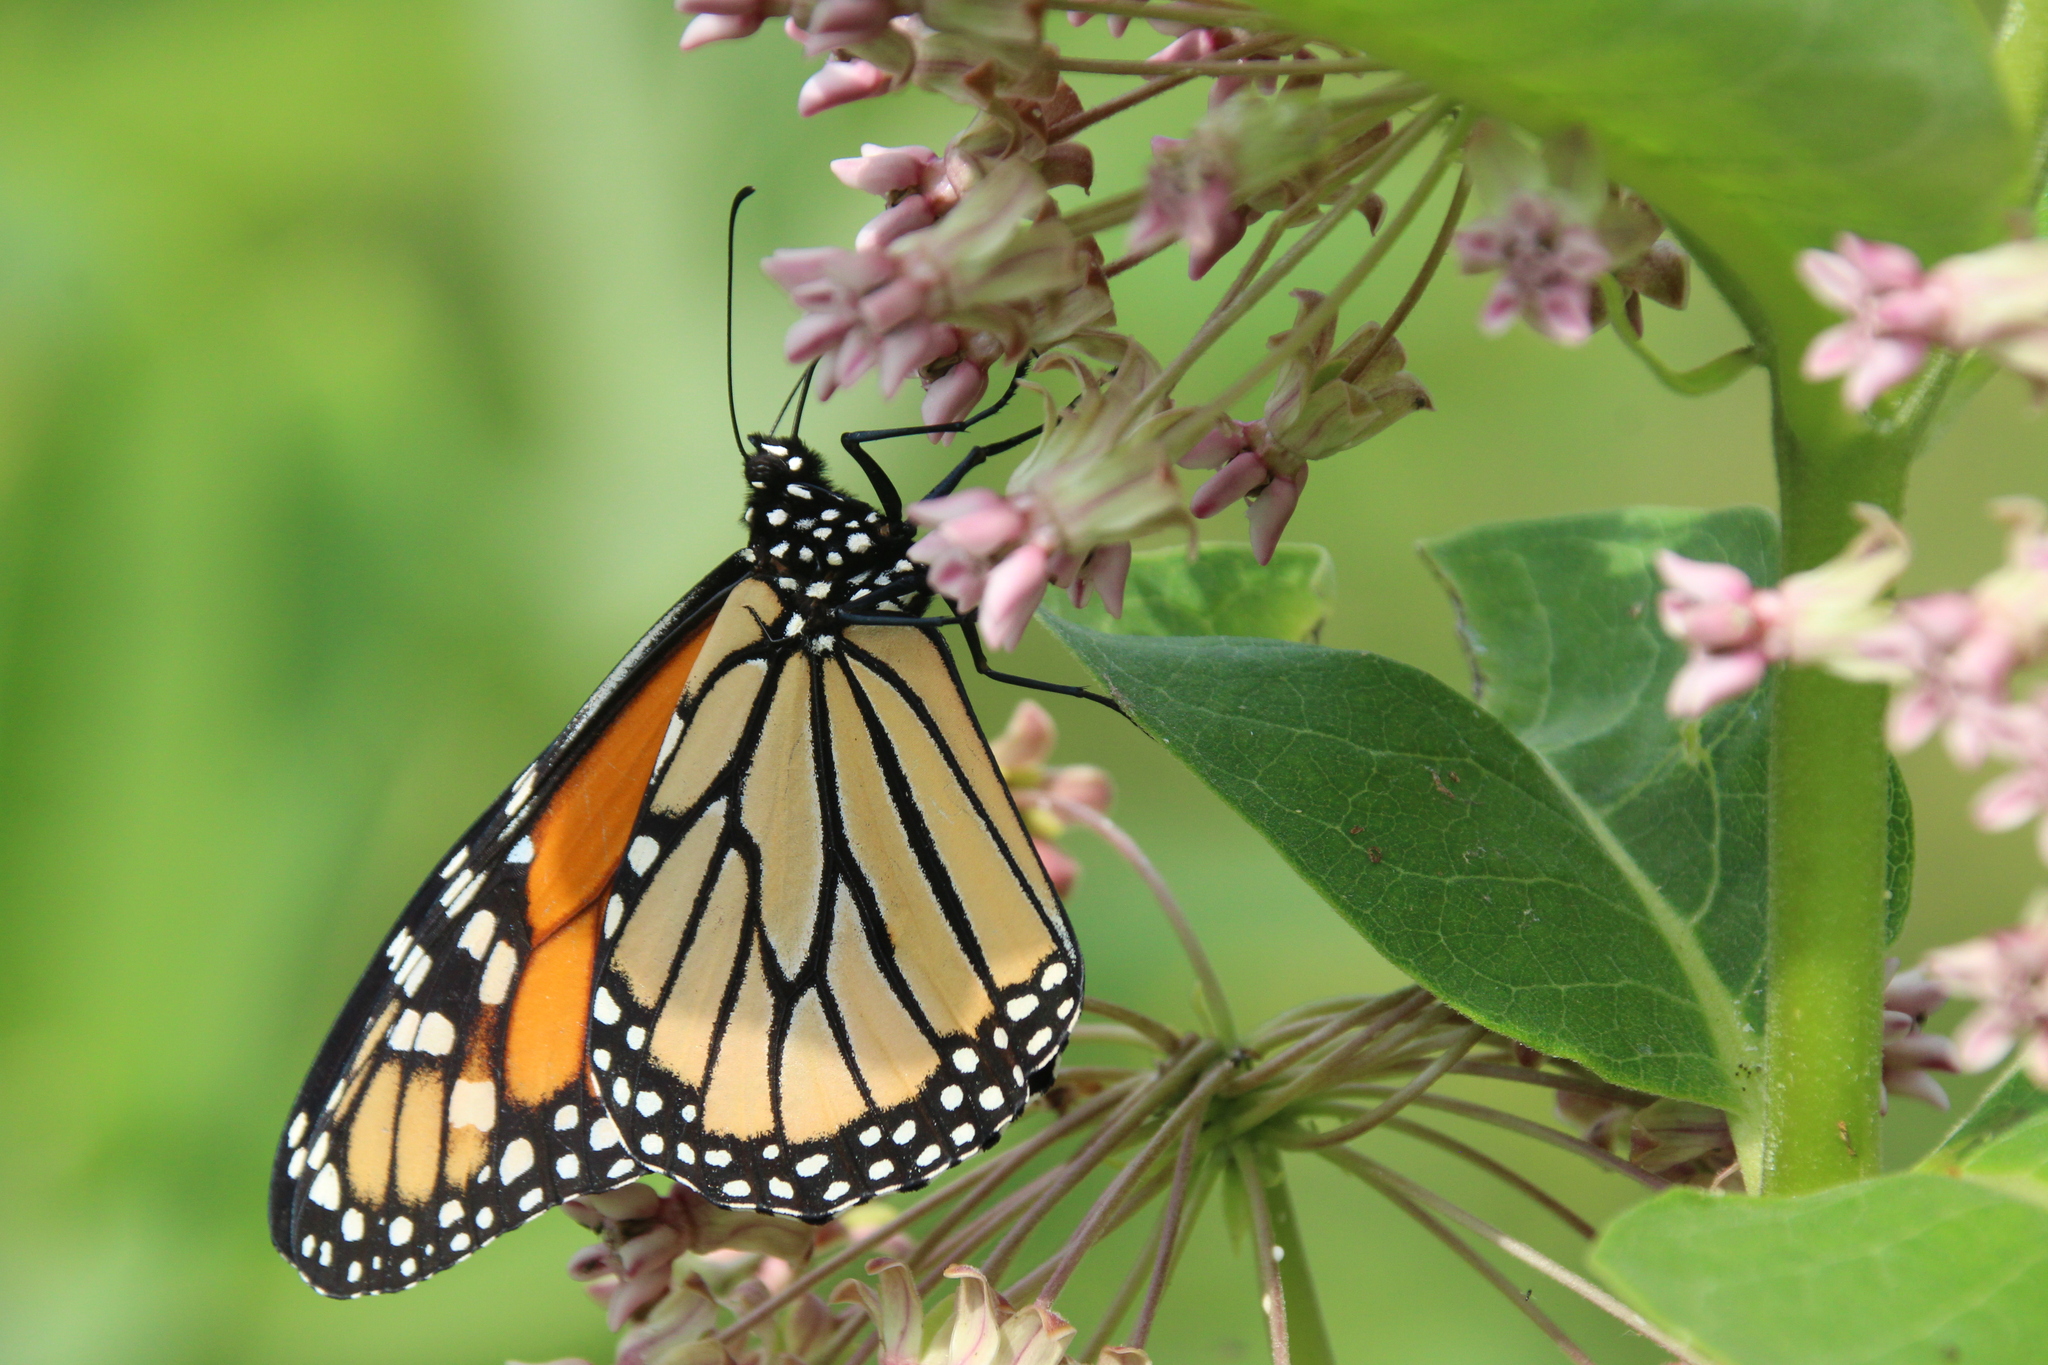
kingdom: Animalia
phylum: Arthropoda
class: Insecta
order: Lepidoptera
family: Nymphalidae
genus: Danaus
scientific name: Danaus plexippus
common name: Monarch
